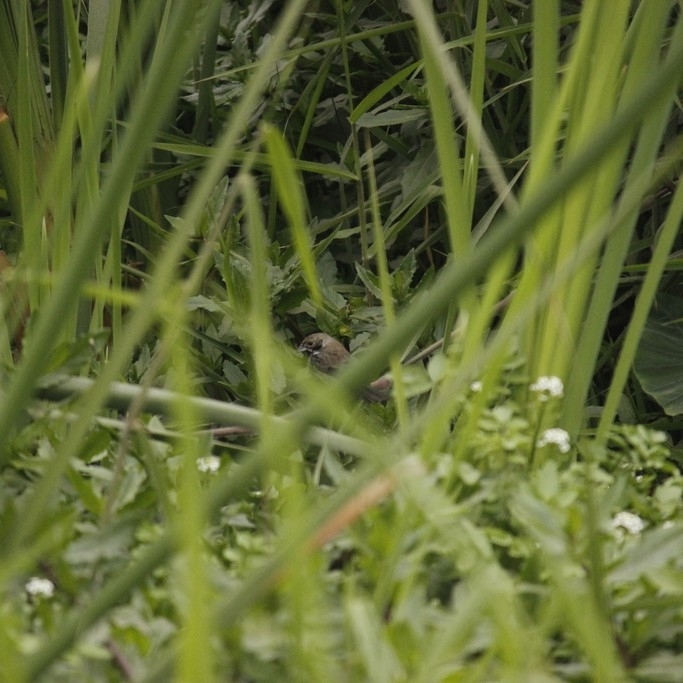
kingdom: Animalia
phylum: Chordata
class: Aves
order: Passeriformes
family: Thraupidae
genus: Volatinia
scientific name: Volatinia jacarina
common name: Blue-black grassquit
